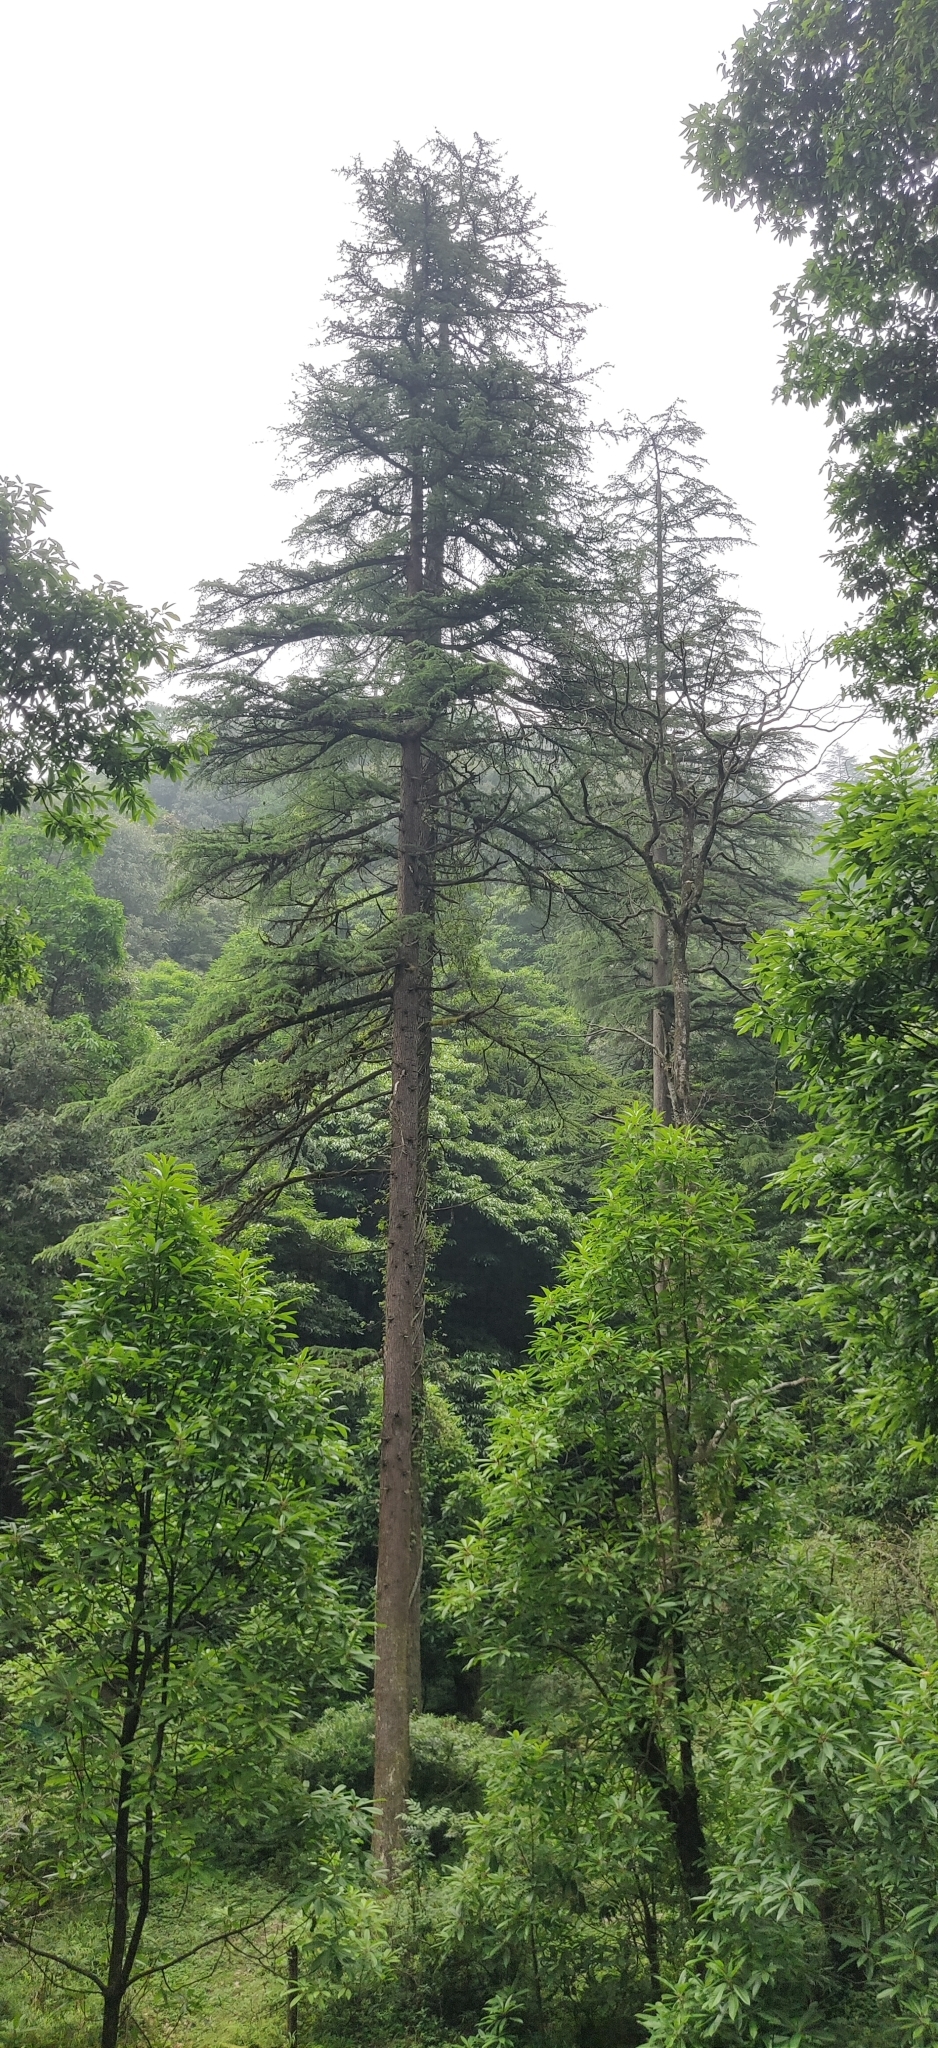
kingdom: Plantae
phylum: Tracheophyta
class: Pinopsida
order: Pinales
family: Pinaceae
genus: Cedrus
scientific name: Cedrus deodara
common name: Deodar
